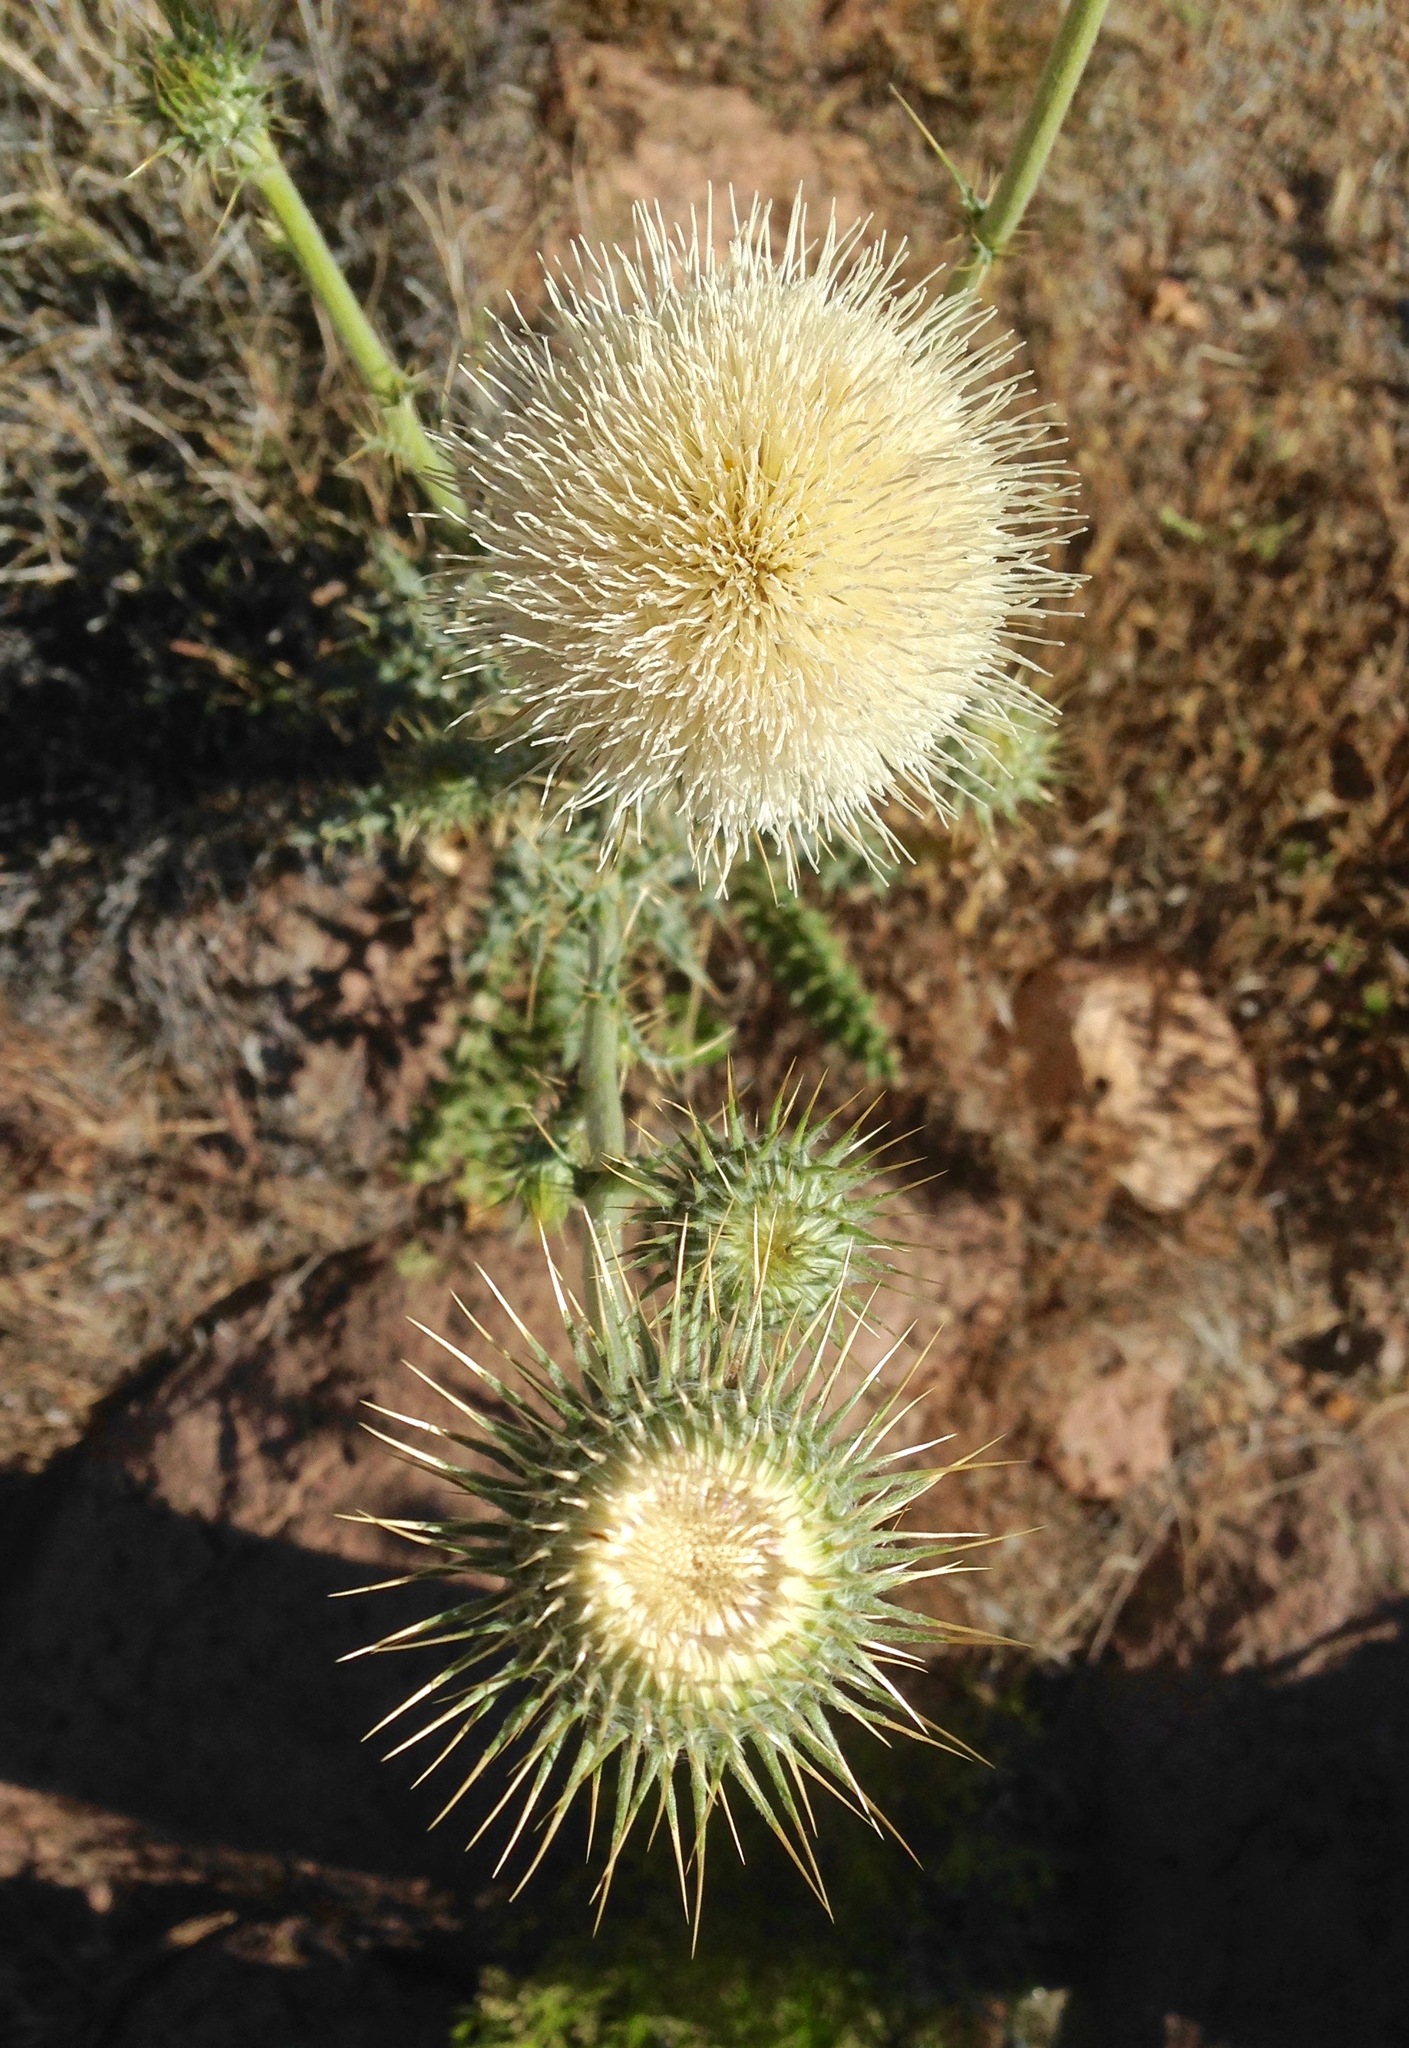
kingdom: Plantae
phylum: Tracheophyta
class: Magnoliopsida
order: Asterales
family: Asteraceae
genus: Cirsium
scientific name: Cirsium neomexicanum
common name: New mexico thistle
